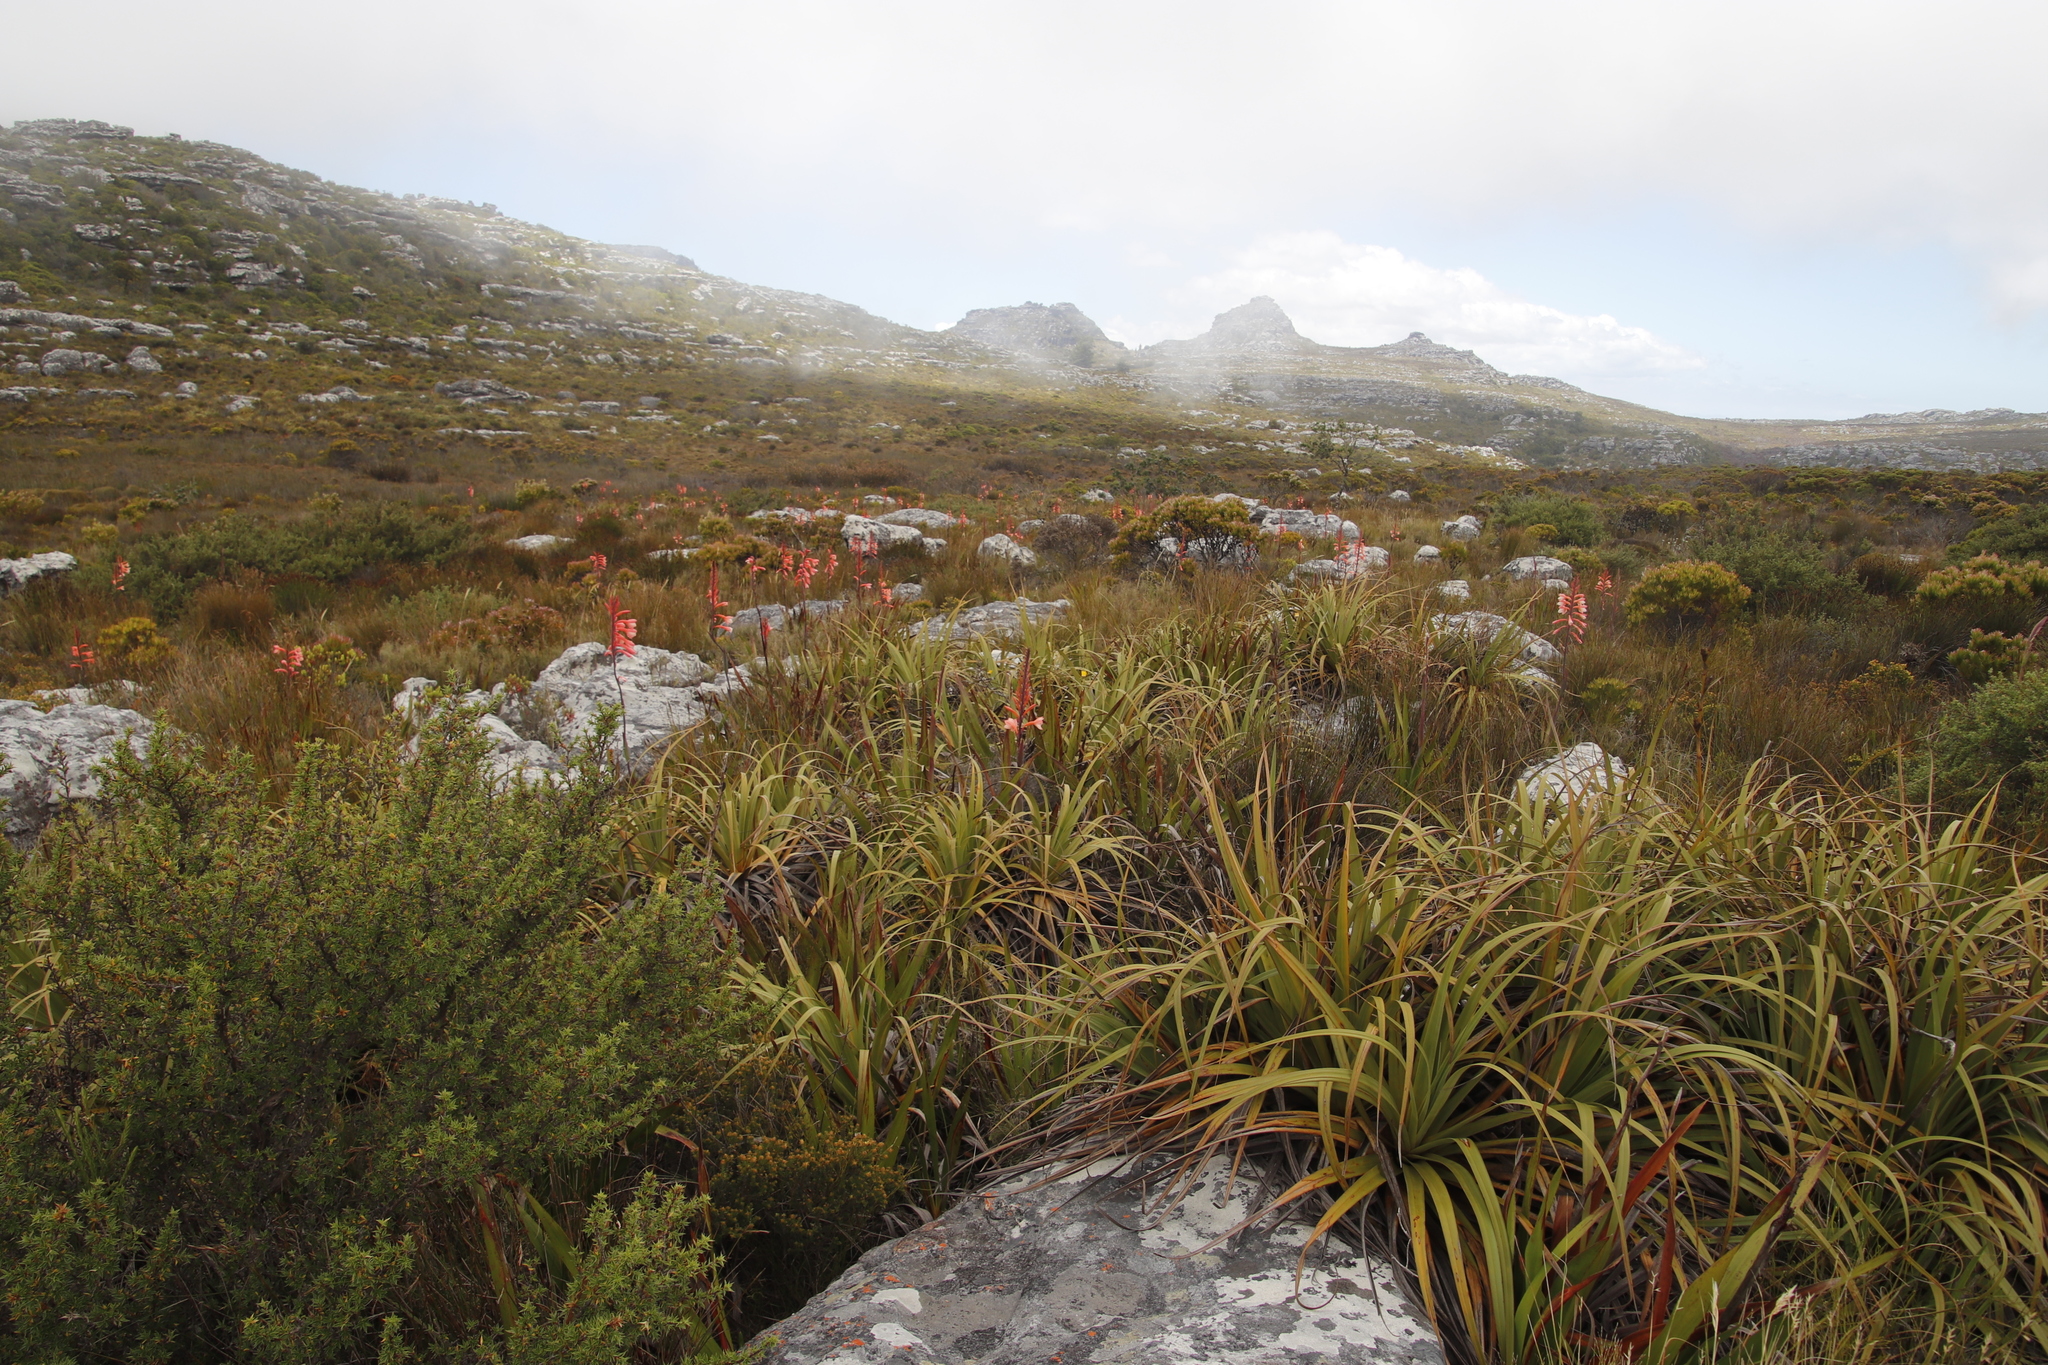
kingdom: Plantae
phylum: Tracheophyta
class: Liliopsida
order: Asparagales
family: Iridaceae
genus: Watsonia
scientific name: Watsonia tabularis
